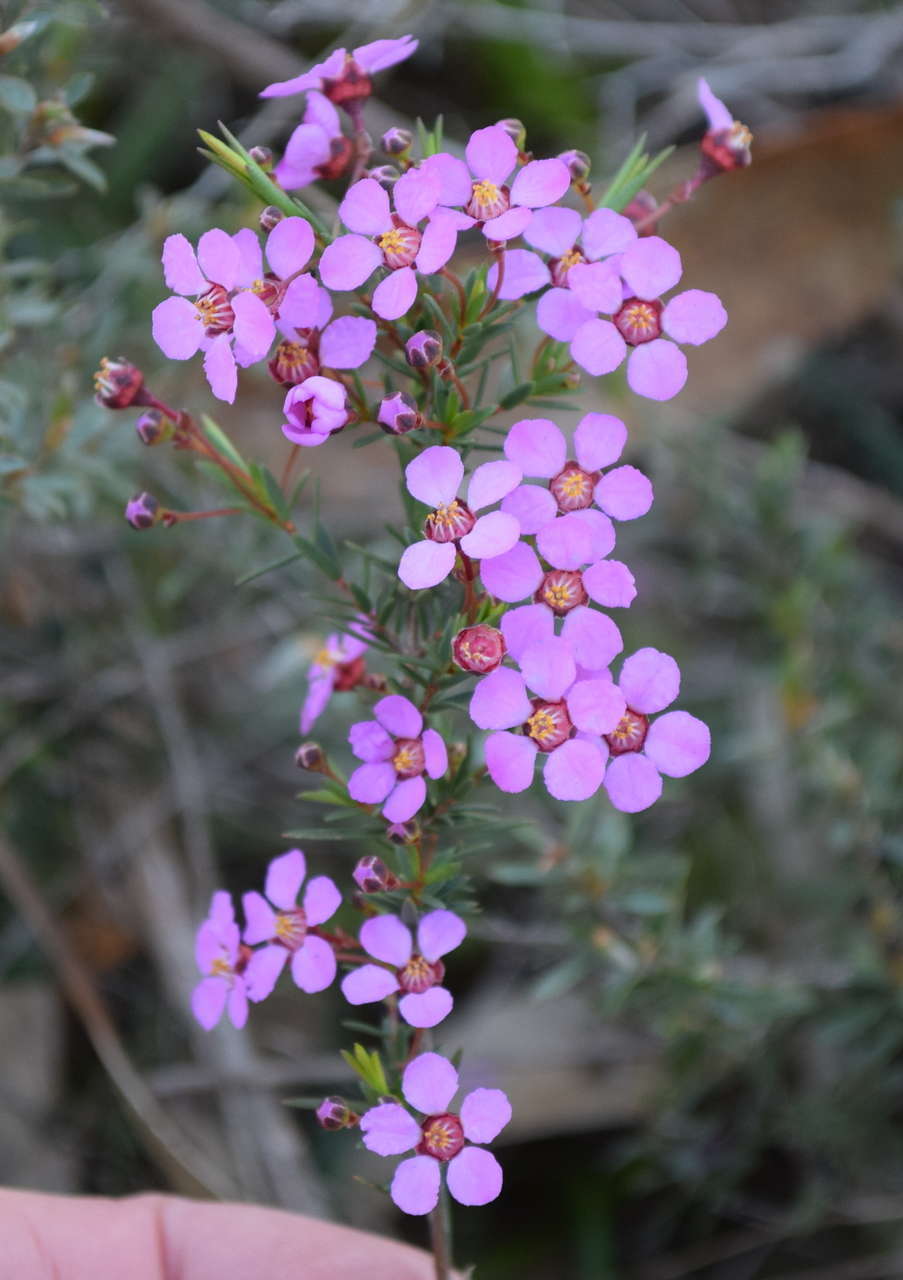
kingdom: Plantae
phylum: Tracheophyta
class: Magnoliopsida
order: Myrtales
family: Myrtaceae
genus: Euryomyrtus
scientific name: Euryomyrtus ramosissima
